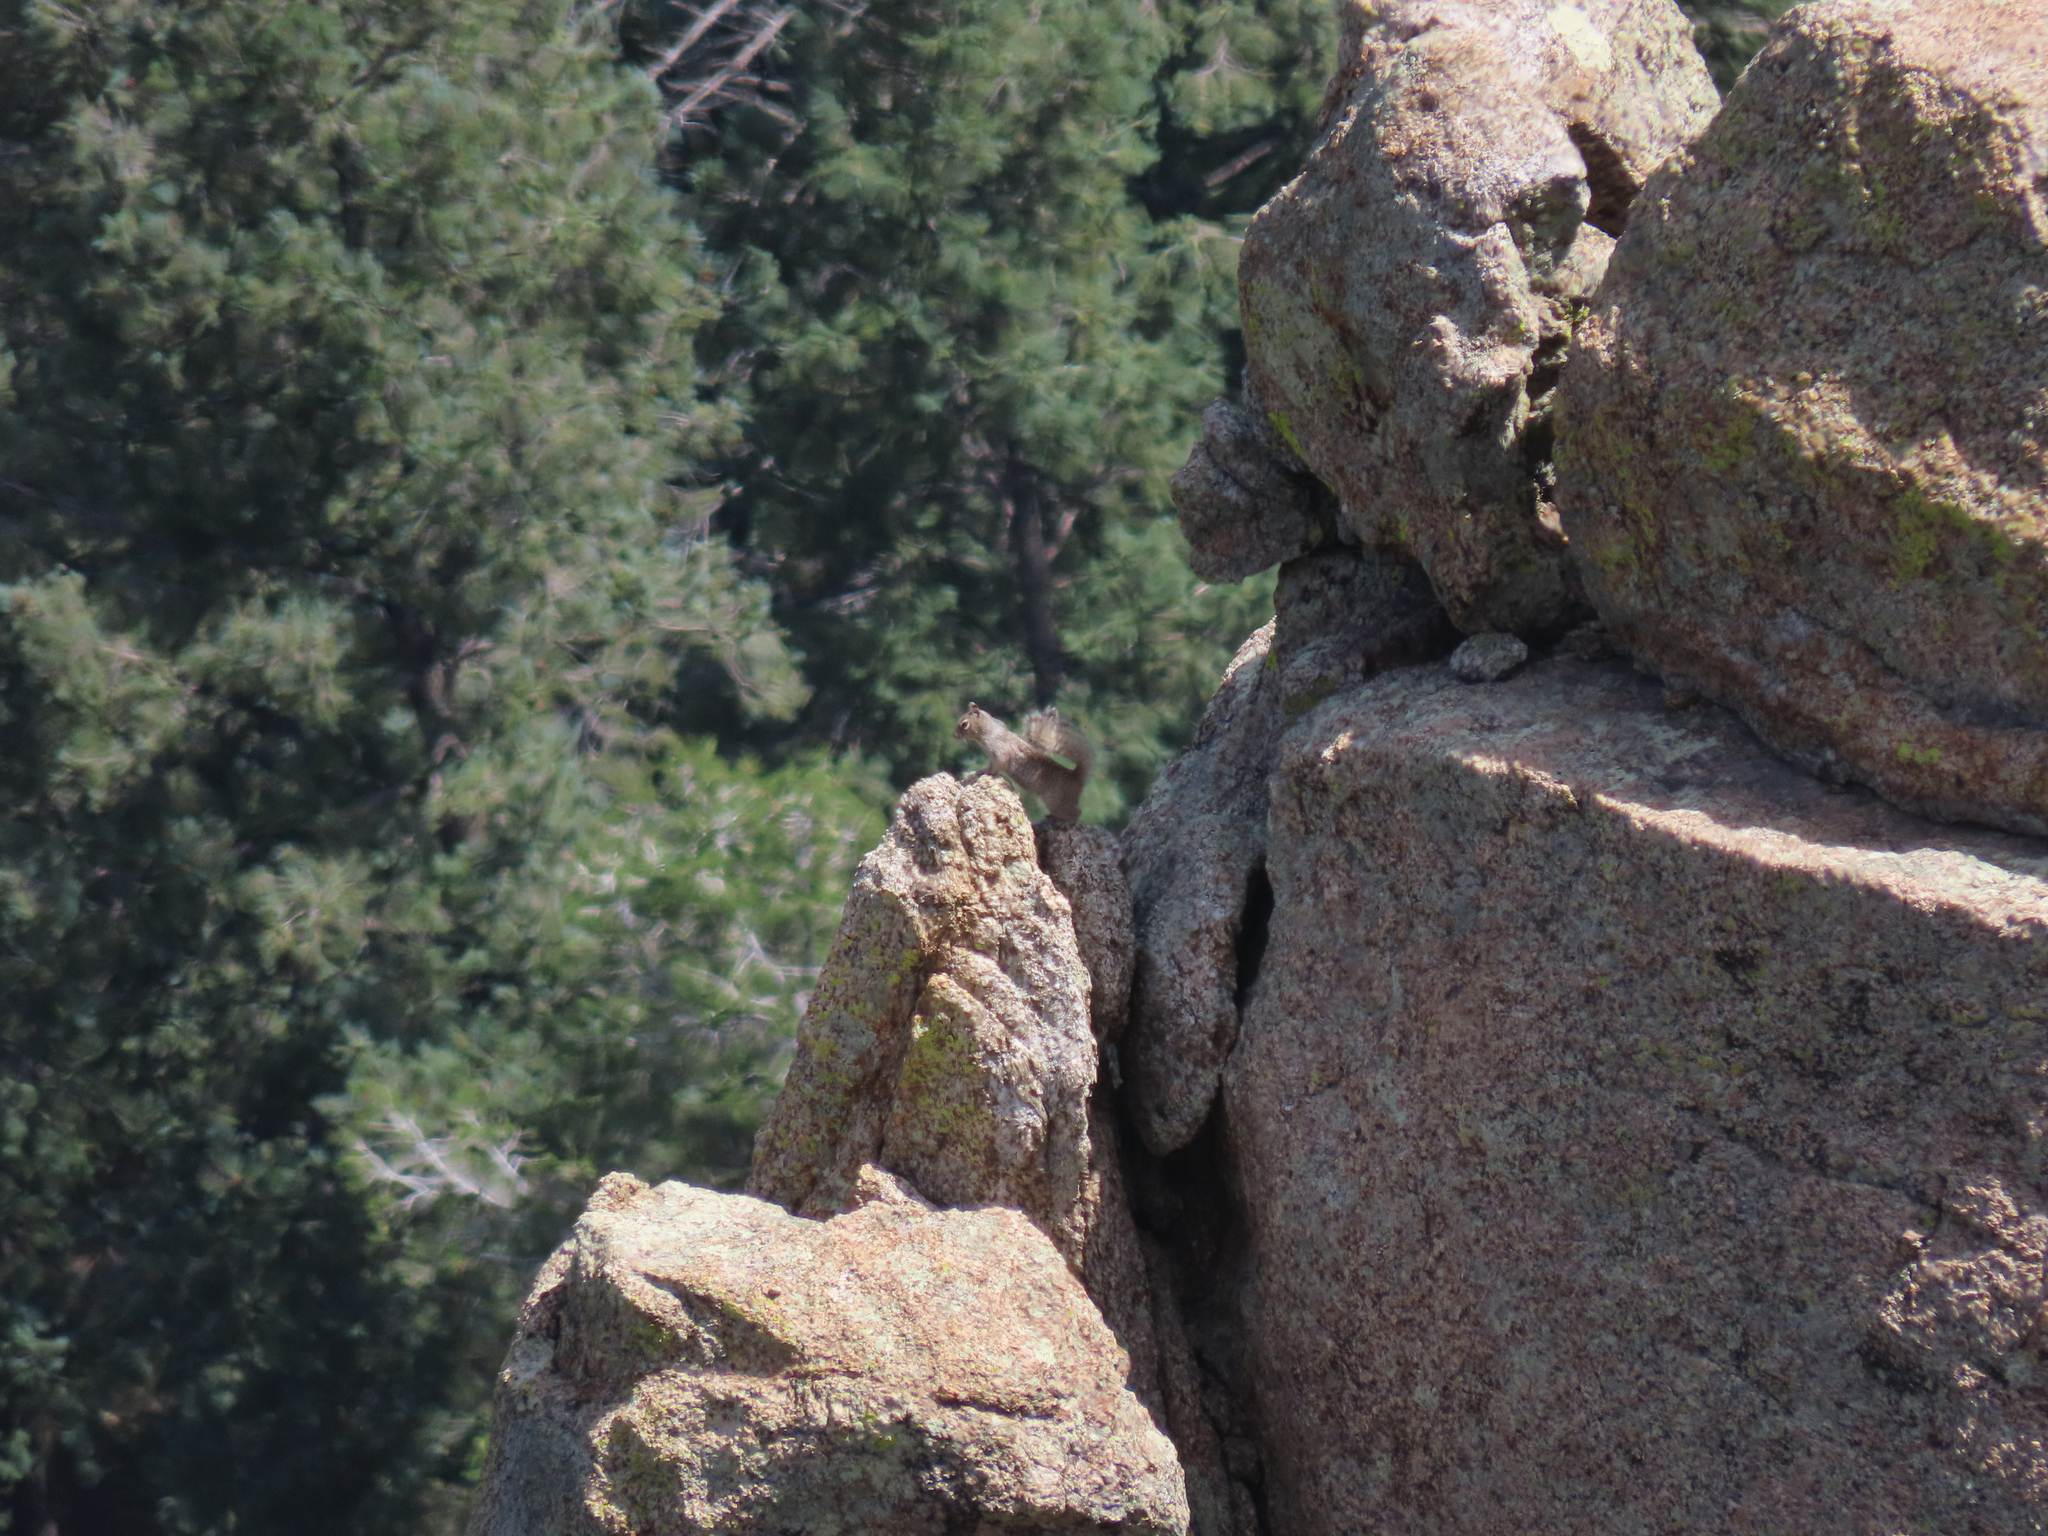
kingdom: Animalia
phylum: Chordata
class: Mammalia
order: Rodentia
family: Sciuridae
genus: Tamiasciurus
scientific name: Tamiasciurus hudsonicus
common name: Red squirrel
